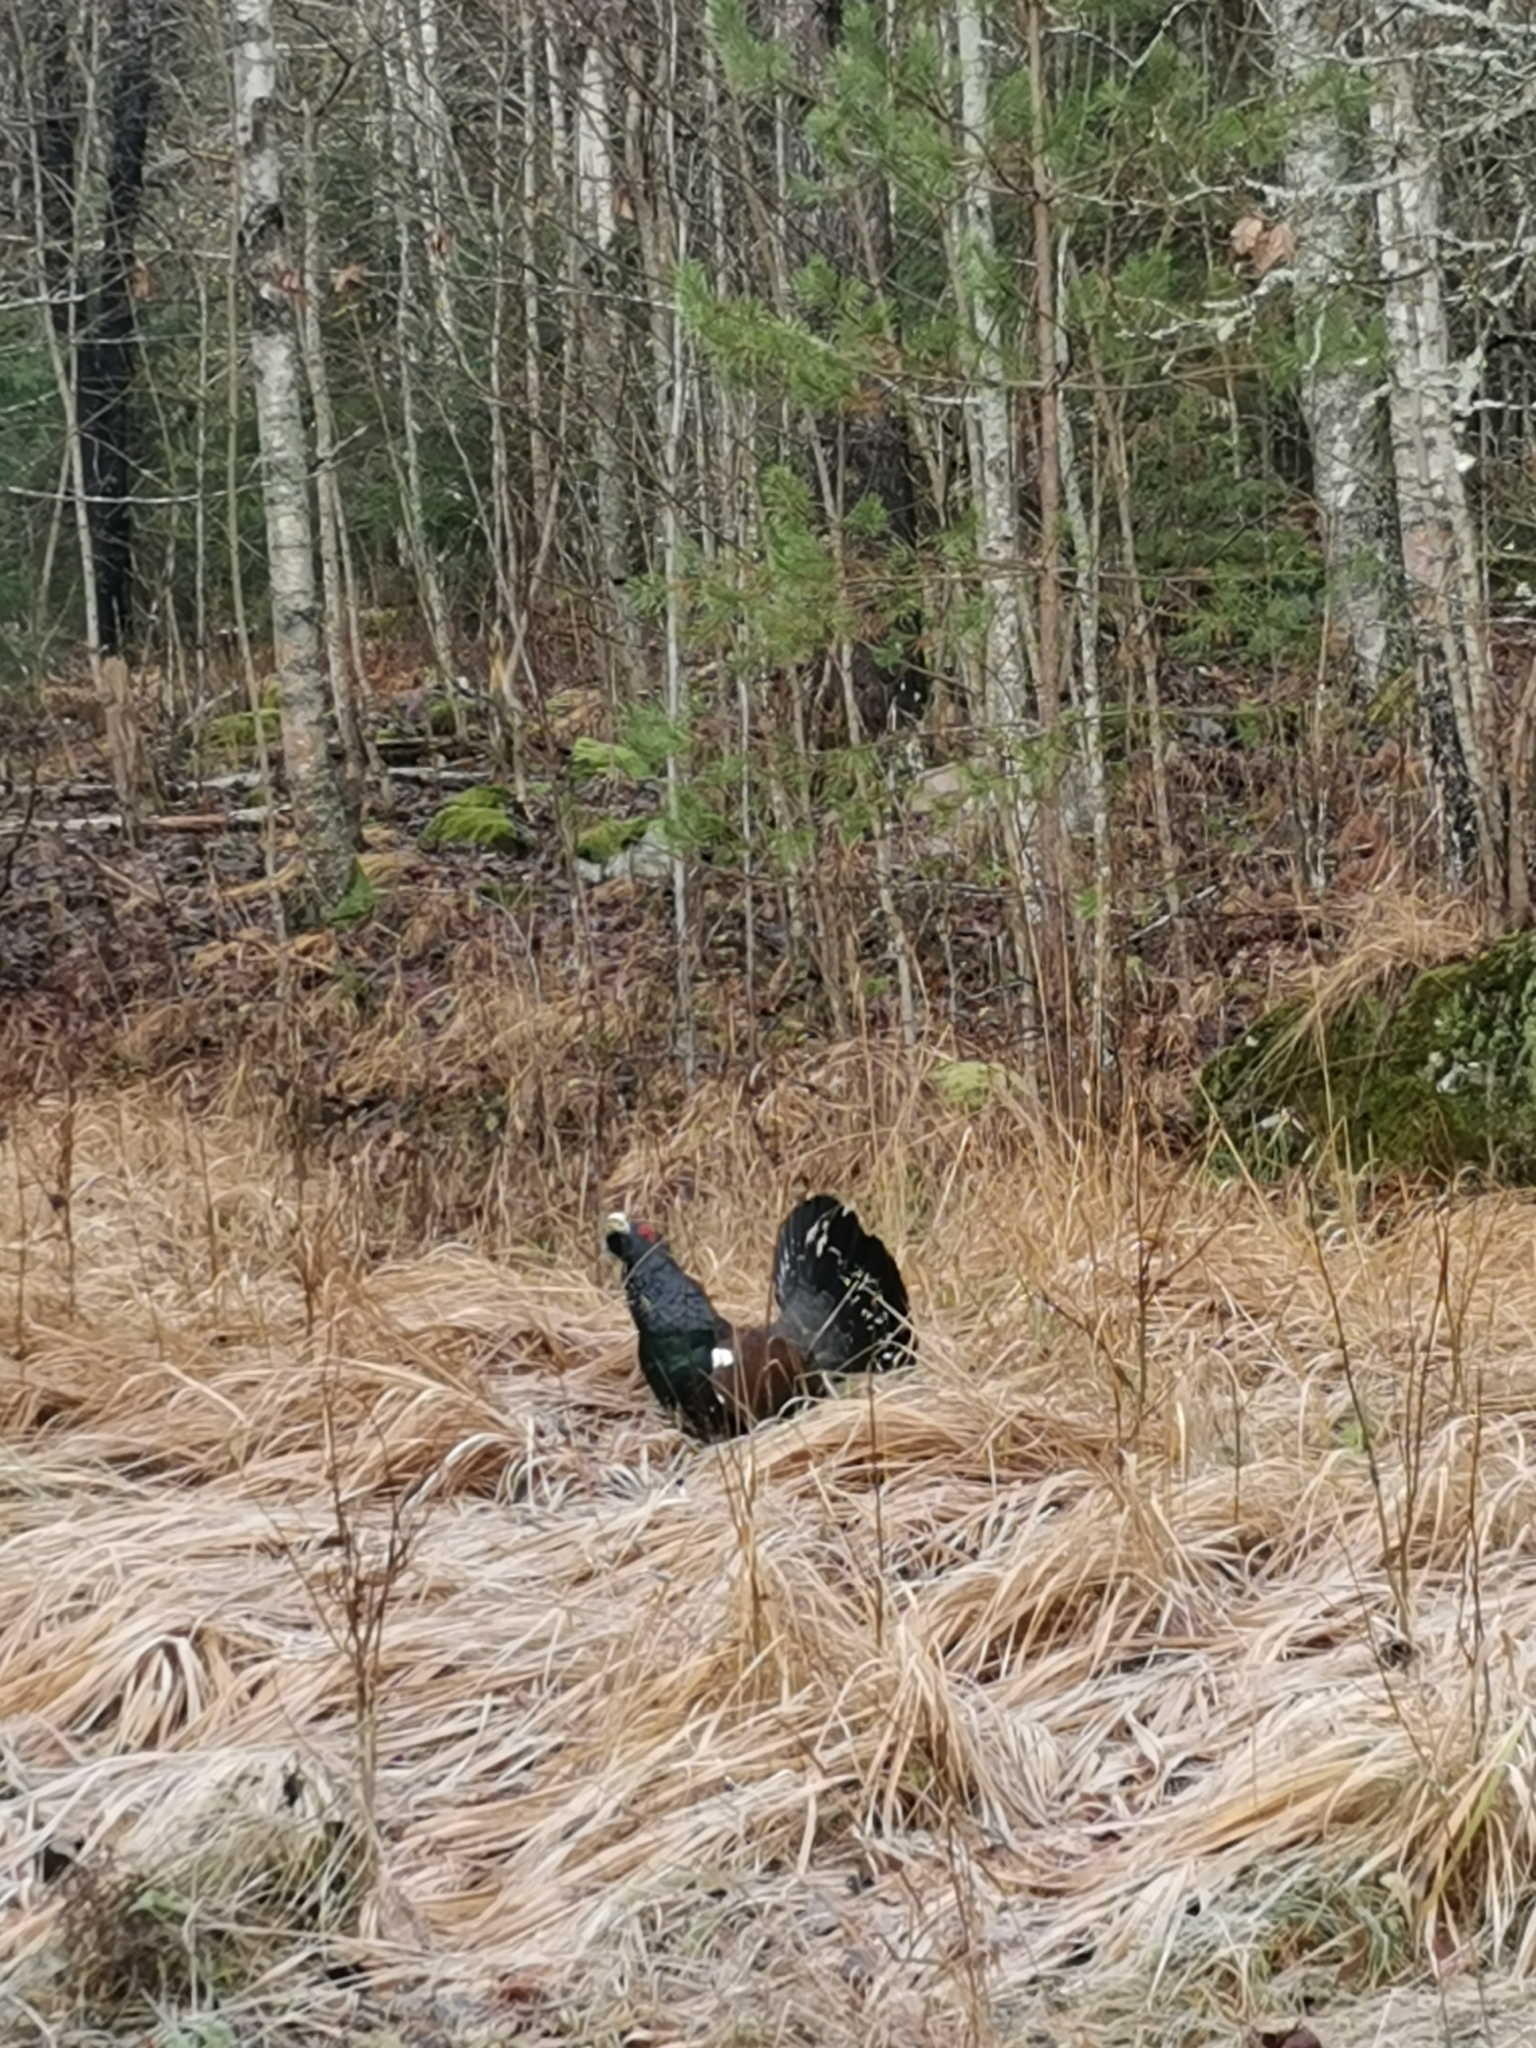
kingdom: Animalia
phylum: Chordata
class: Aves
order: Galliformes
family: Phasianidae
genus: Tetrao
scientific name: Tetrao urogallus
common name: Western capercaillie
